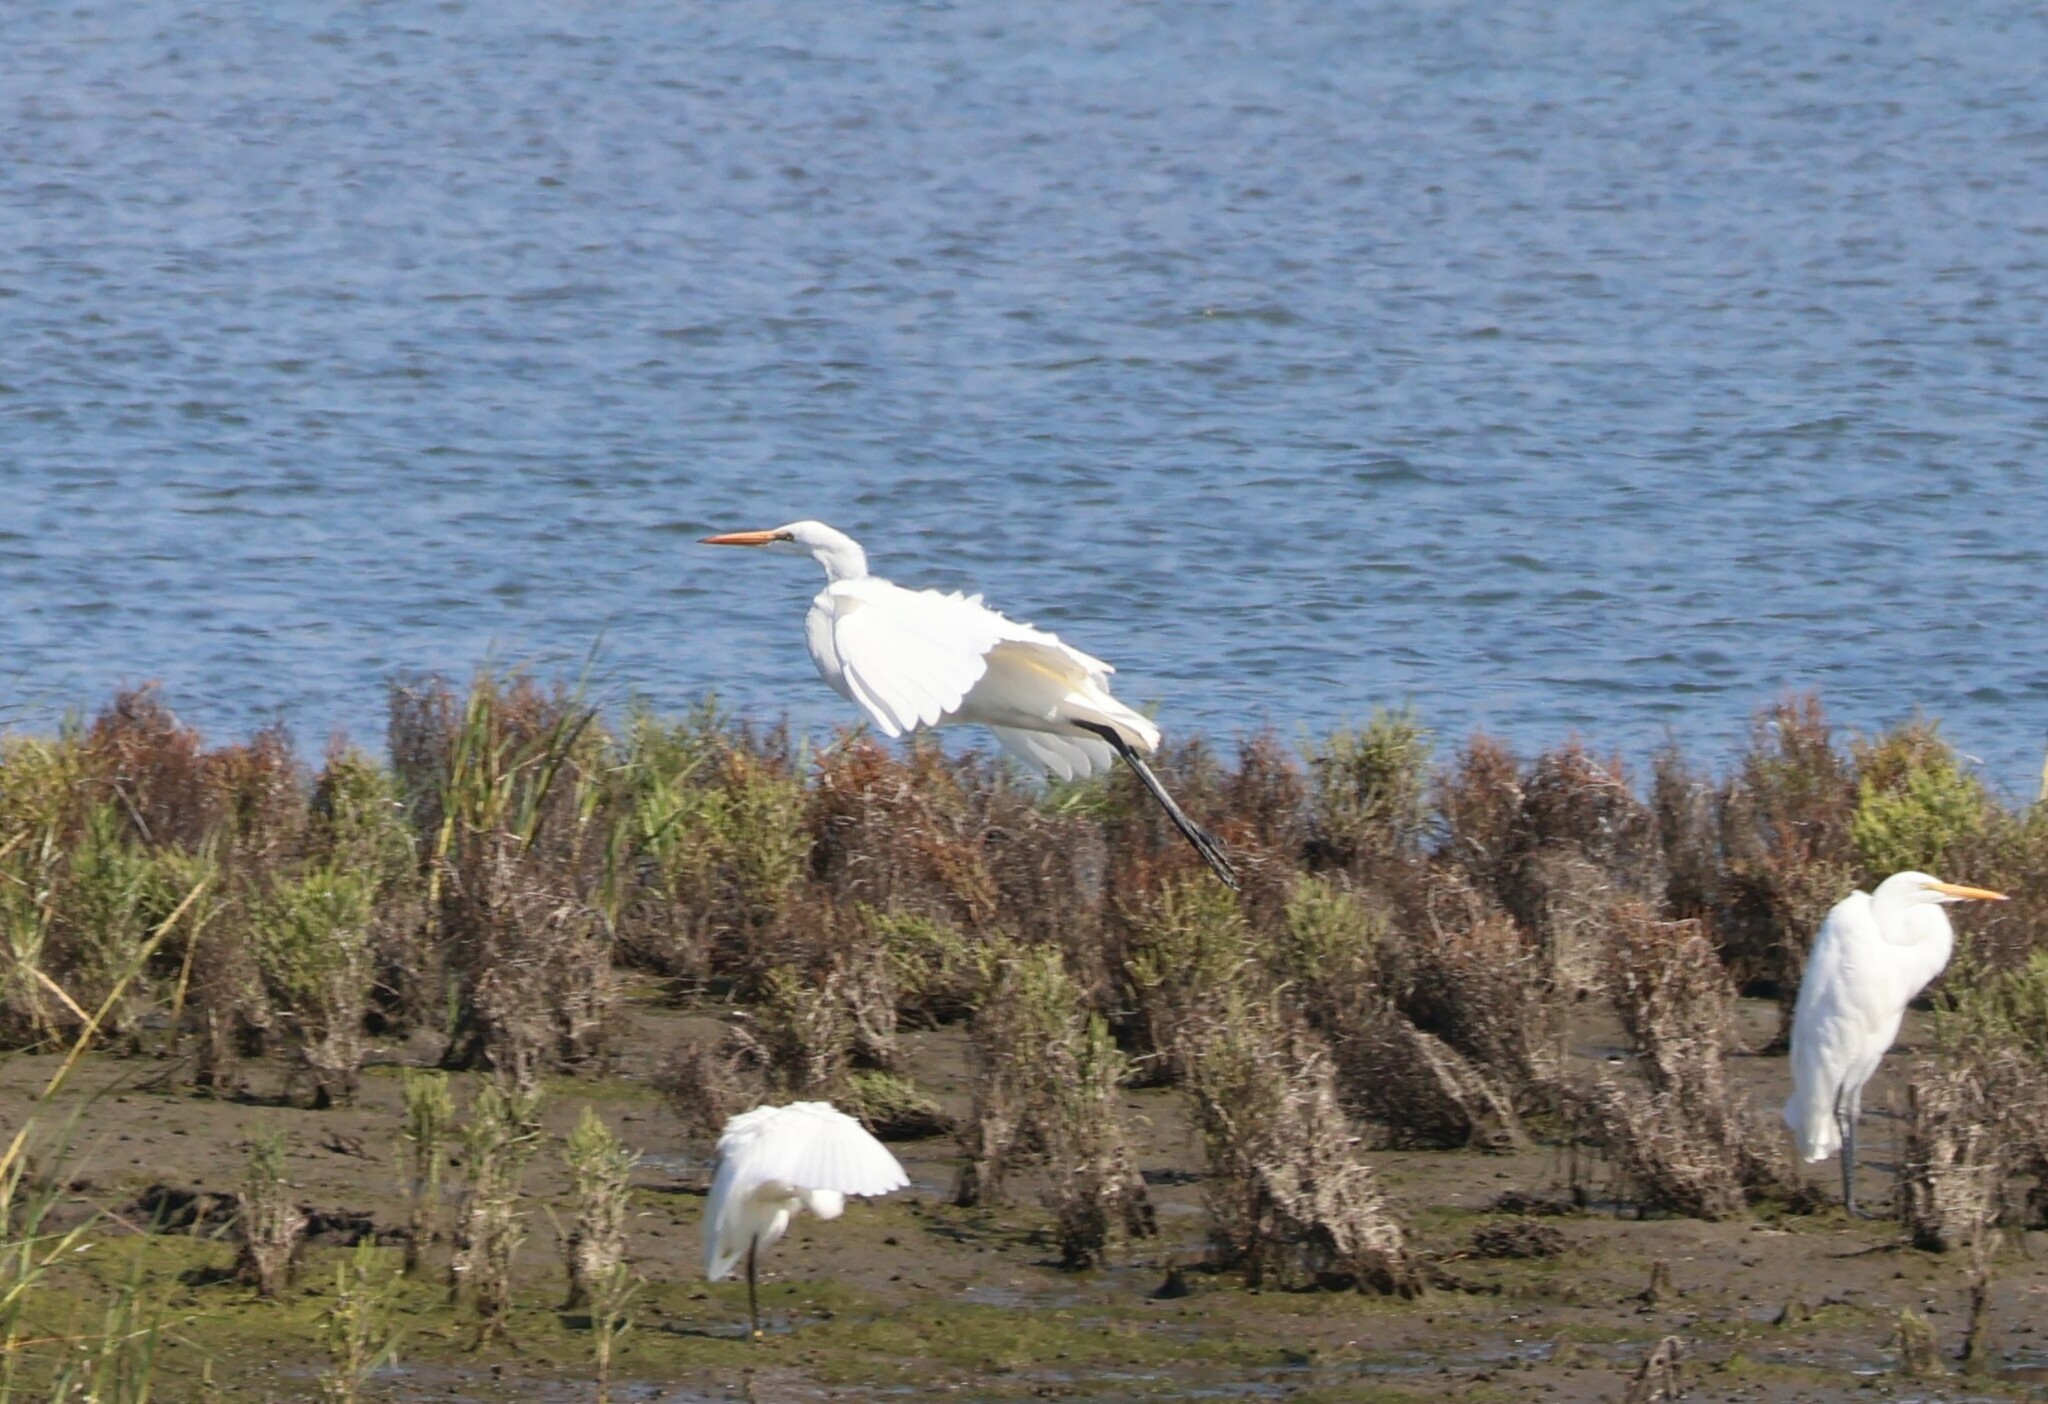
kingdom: Animalia
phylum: Chordata
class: Aves
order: Pelecaniformes
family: Ardeidae
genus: Ardea
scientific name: Ardea alba
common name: Great egret
